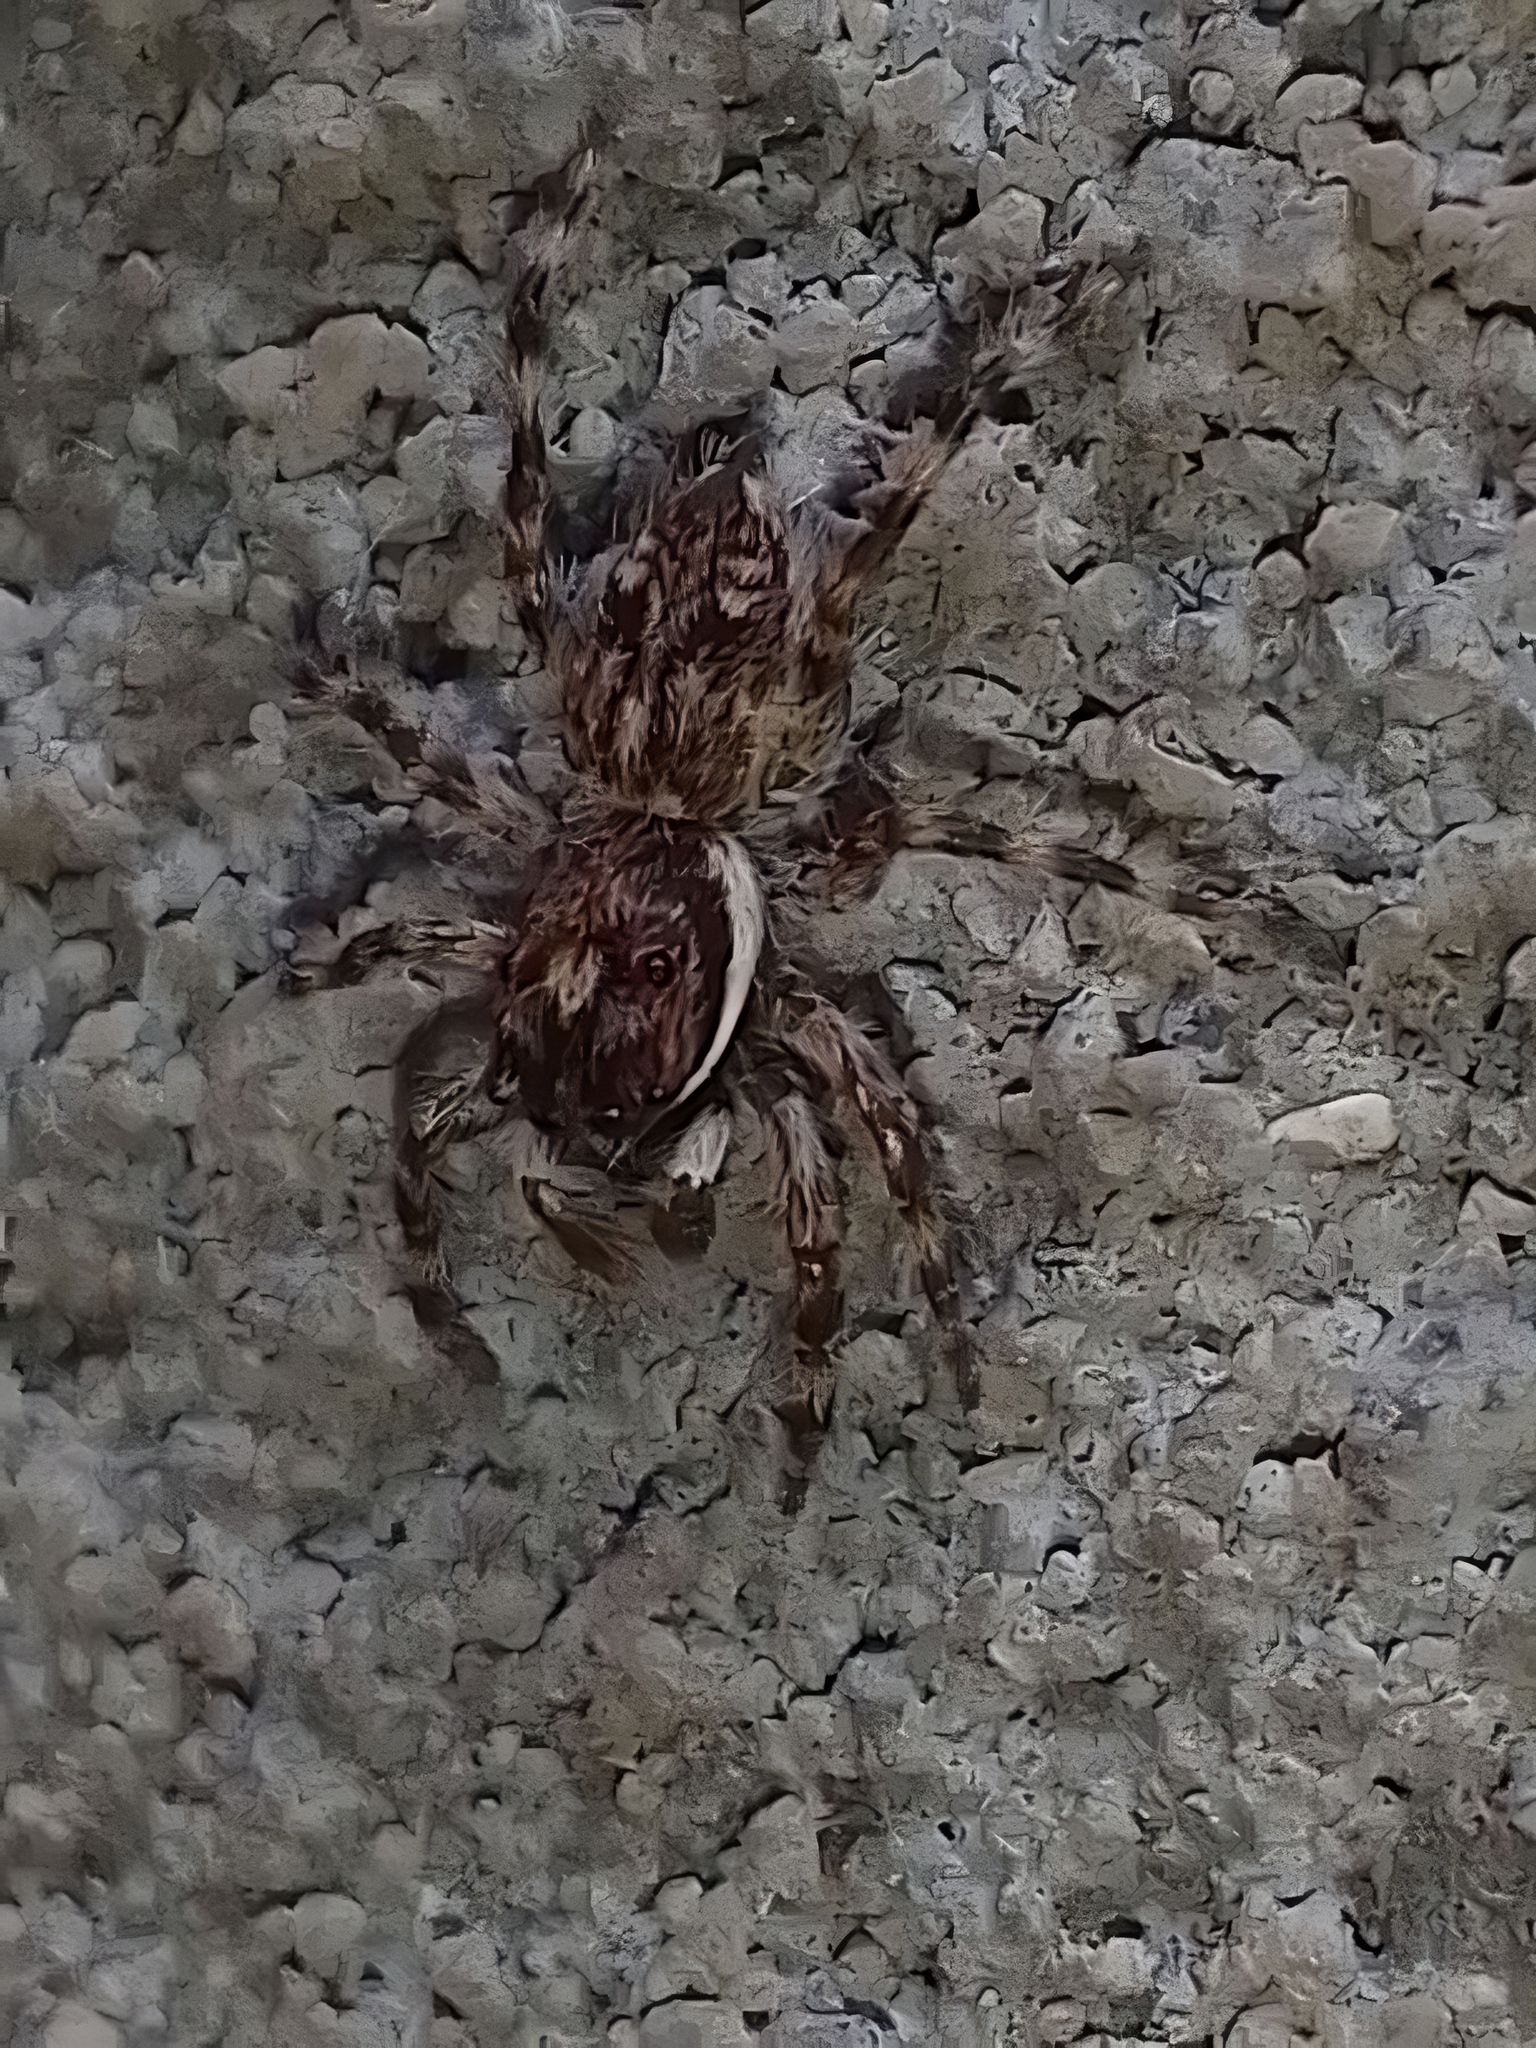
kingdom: Animalia
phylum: Arthropoda
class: Arachnida
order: Araneae
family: Salticidae
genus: Menemerus
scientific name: Menemerus nigli
